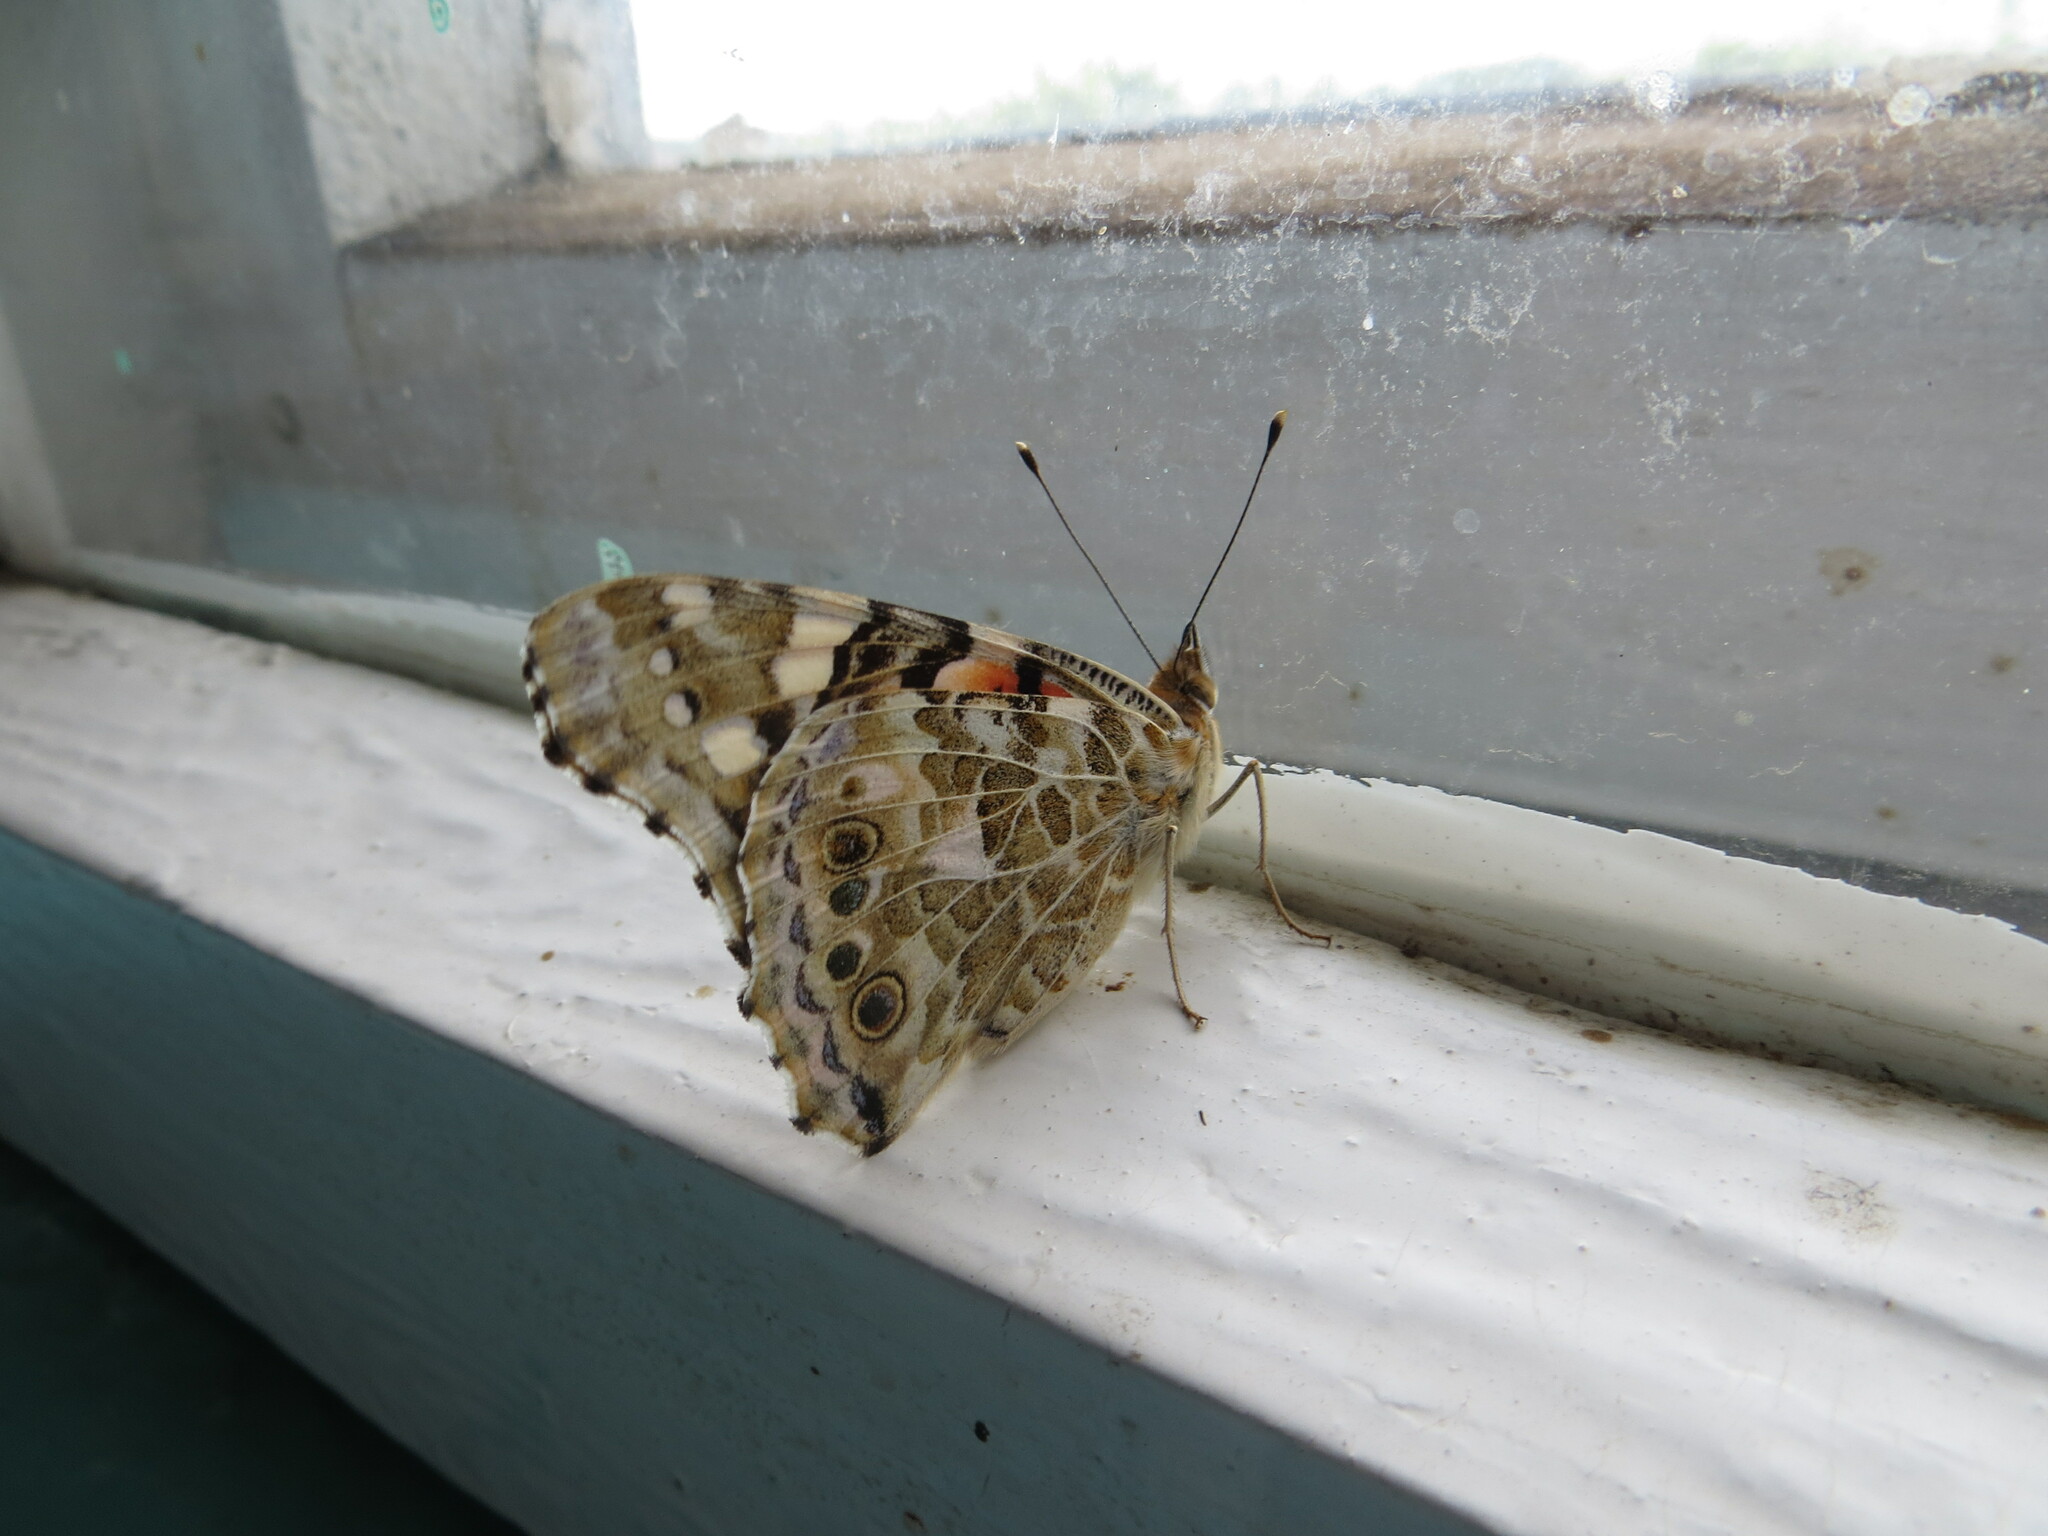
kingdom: Animalia
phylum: Arthropoda
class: Insecta
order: Lepidoptera
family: Nymphalidae
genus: Vanessa
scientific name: Vanessa cardui
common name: Painted lady
